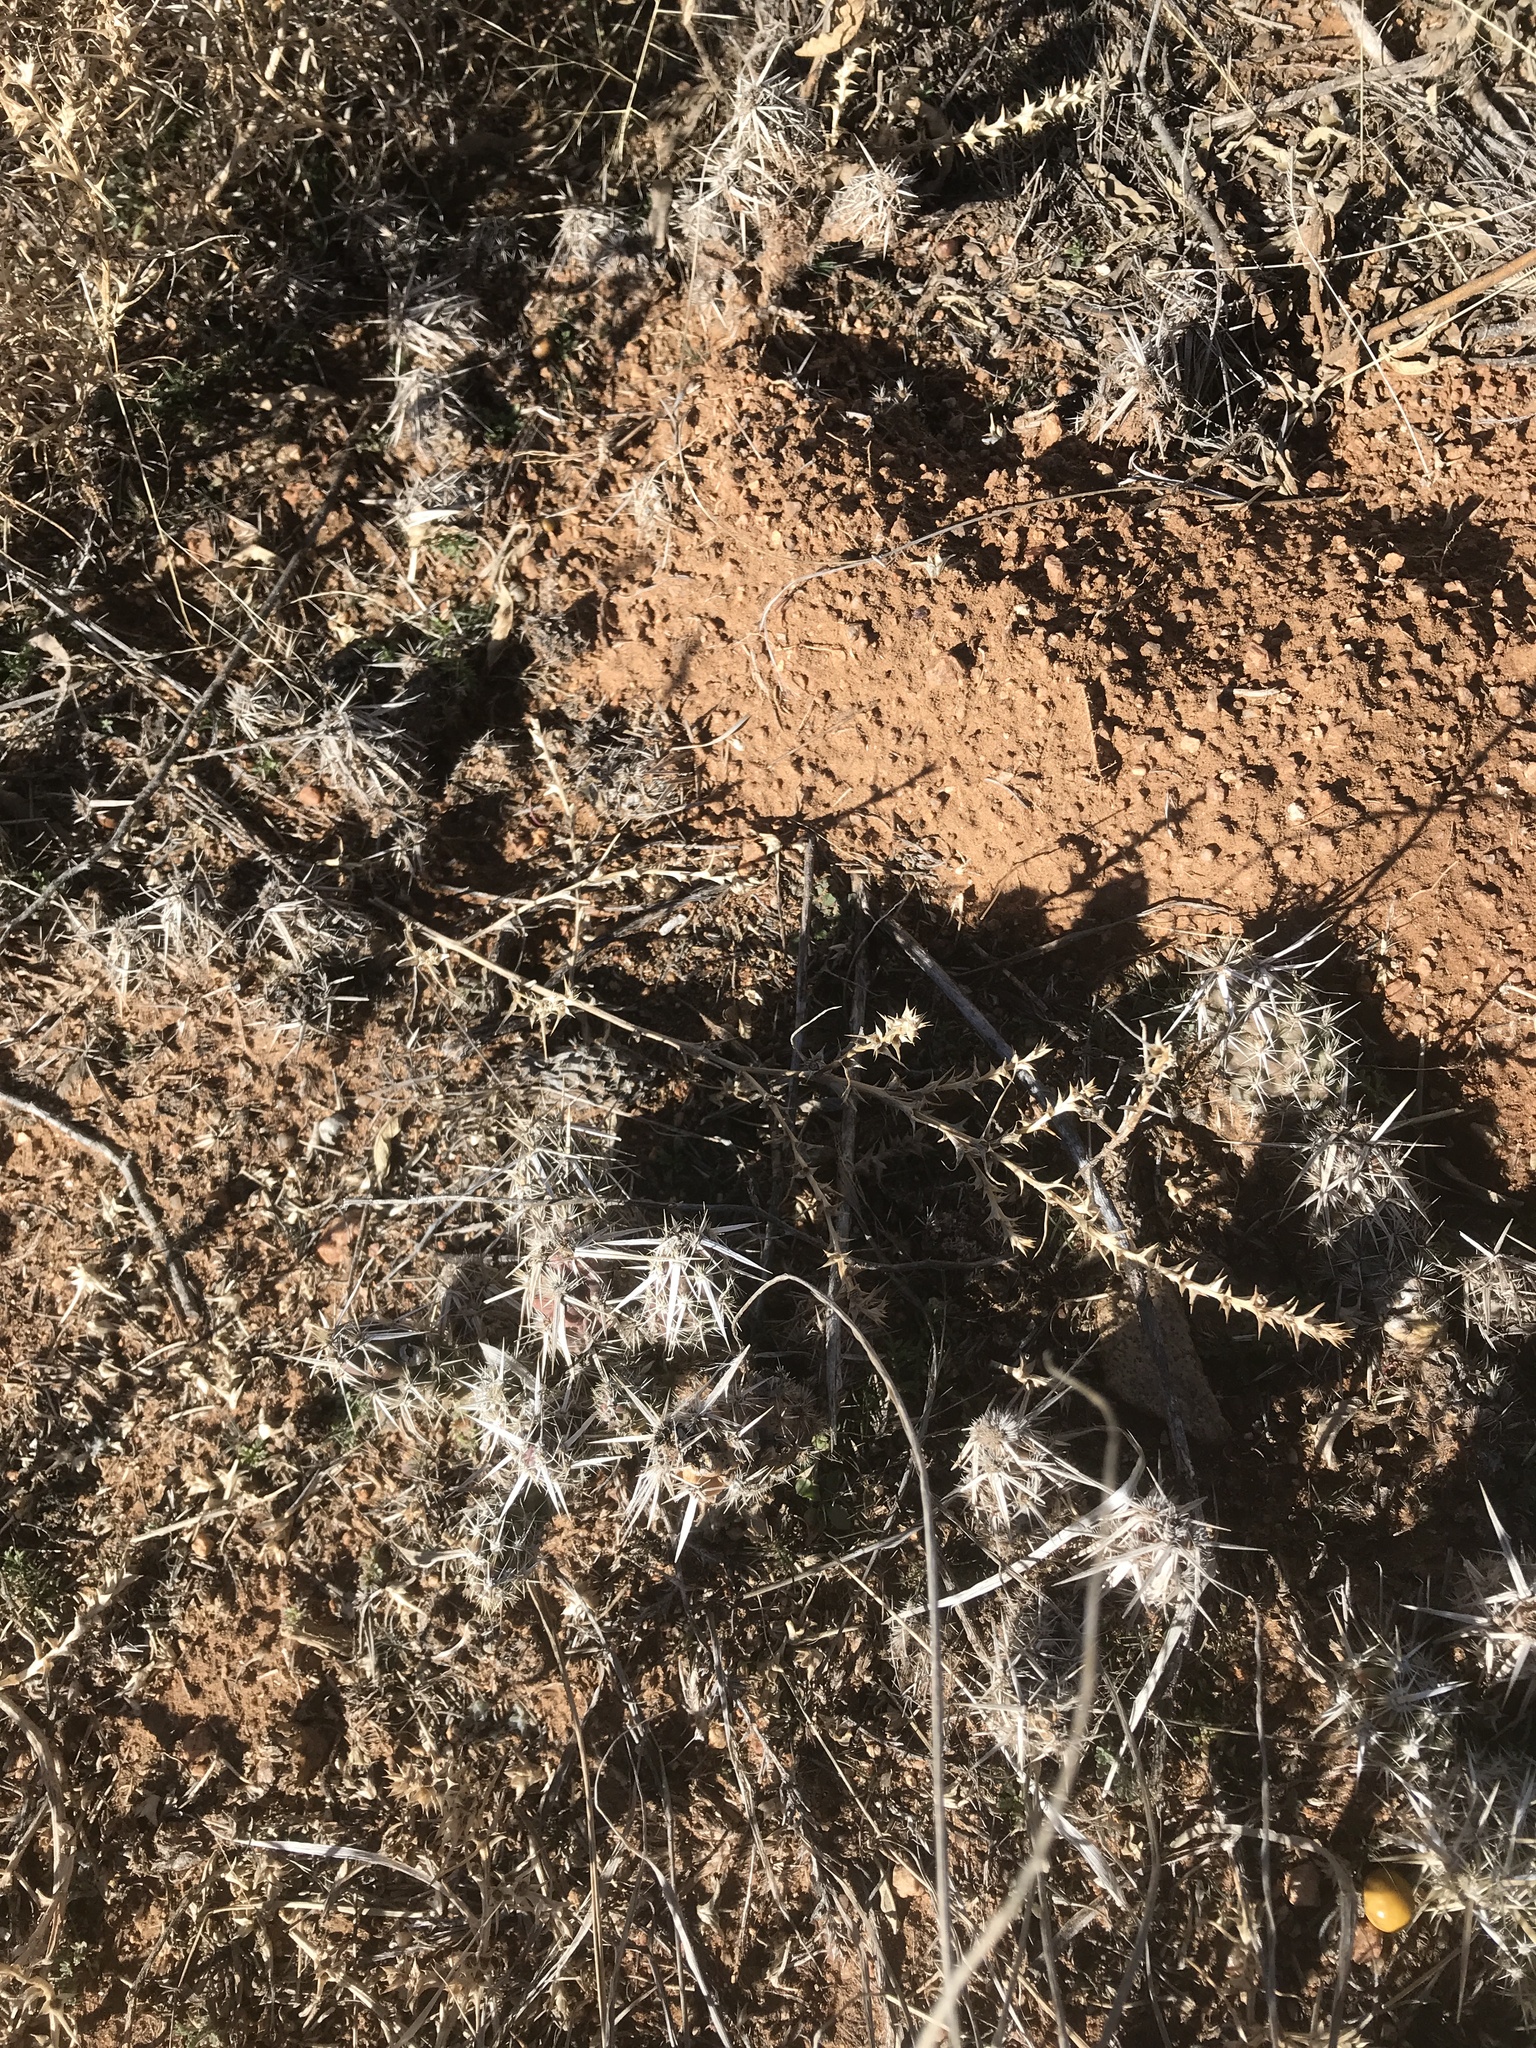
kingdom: Plantae
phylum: Tracheophyta
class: Magnoliopsida
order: Caryophyllales
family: Cactaceae
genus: Grusonia
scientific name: Grusonia clavata
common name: Club cholla
